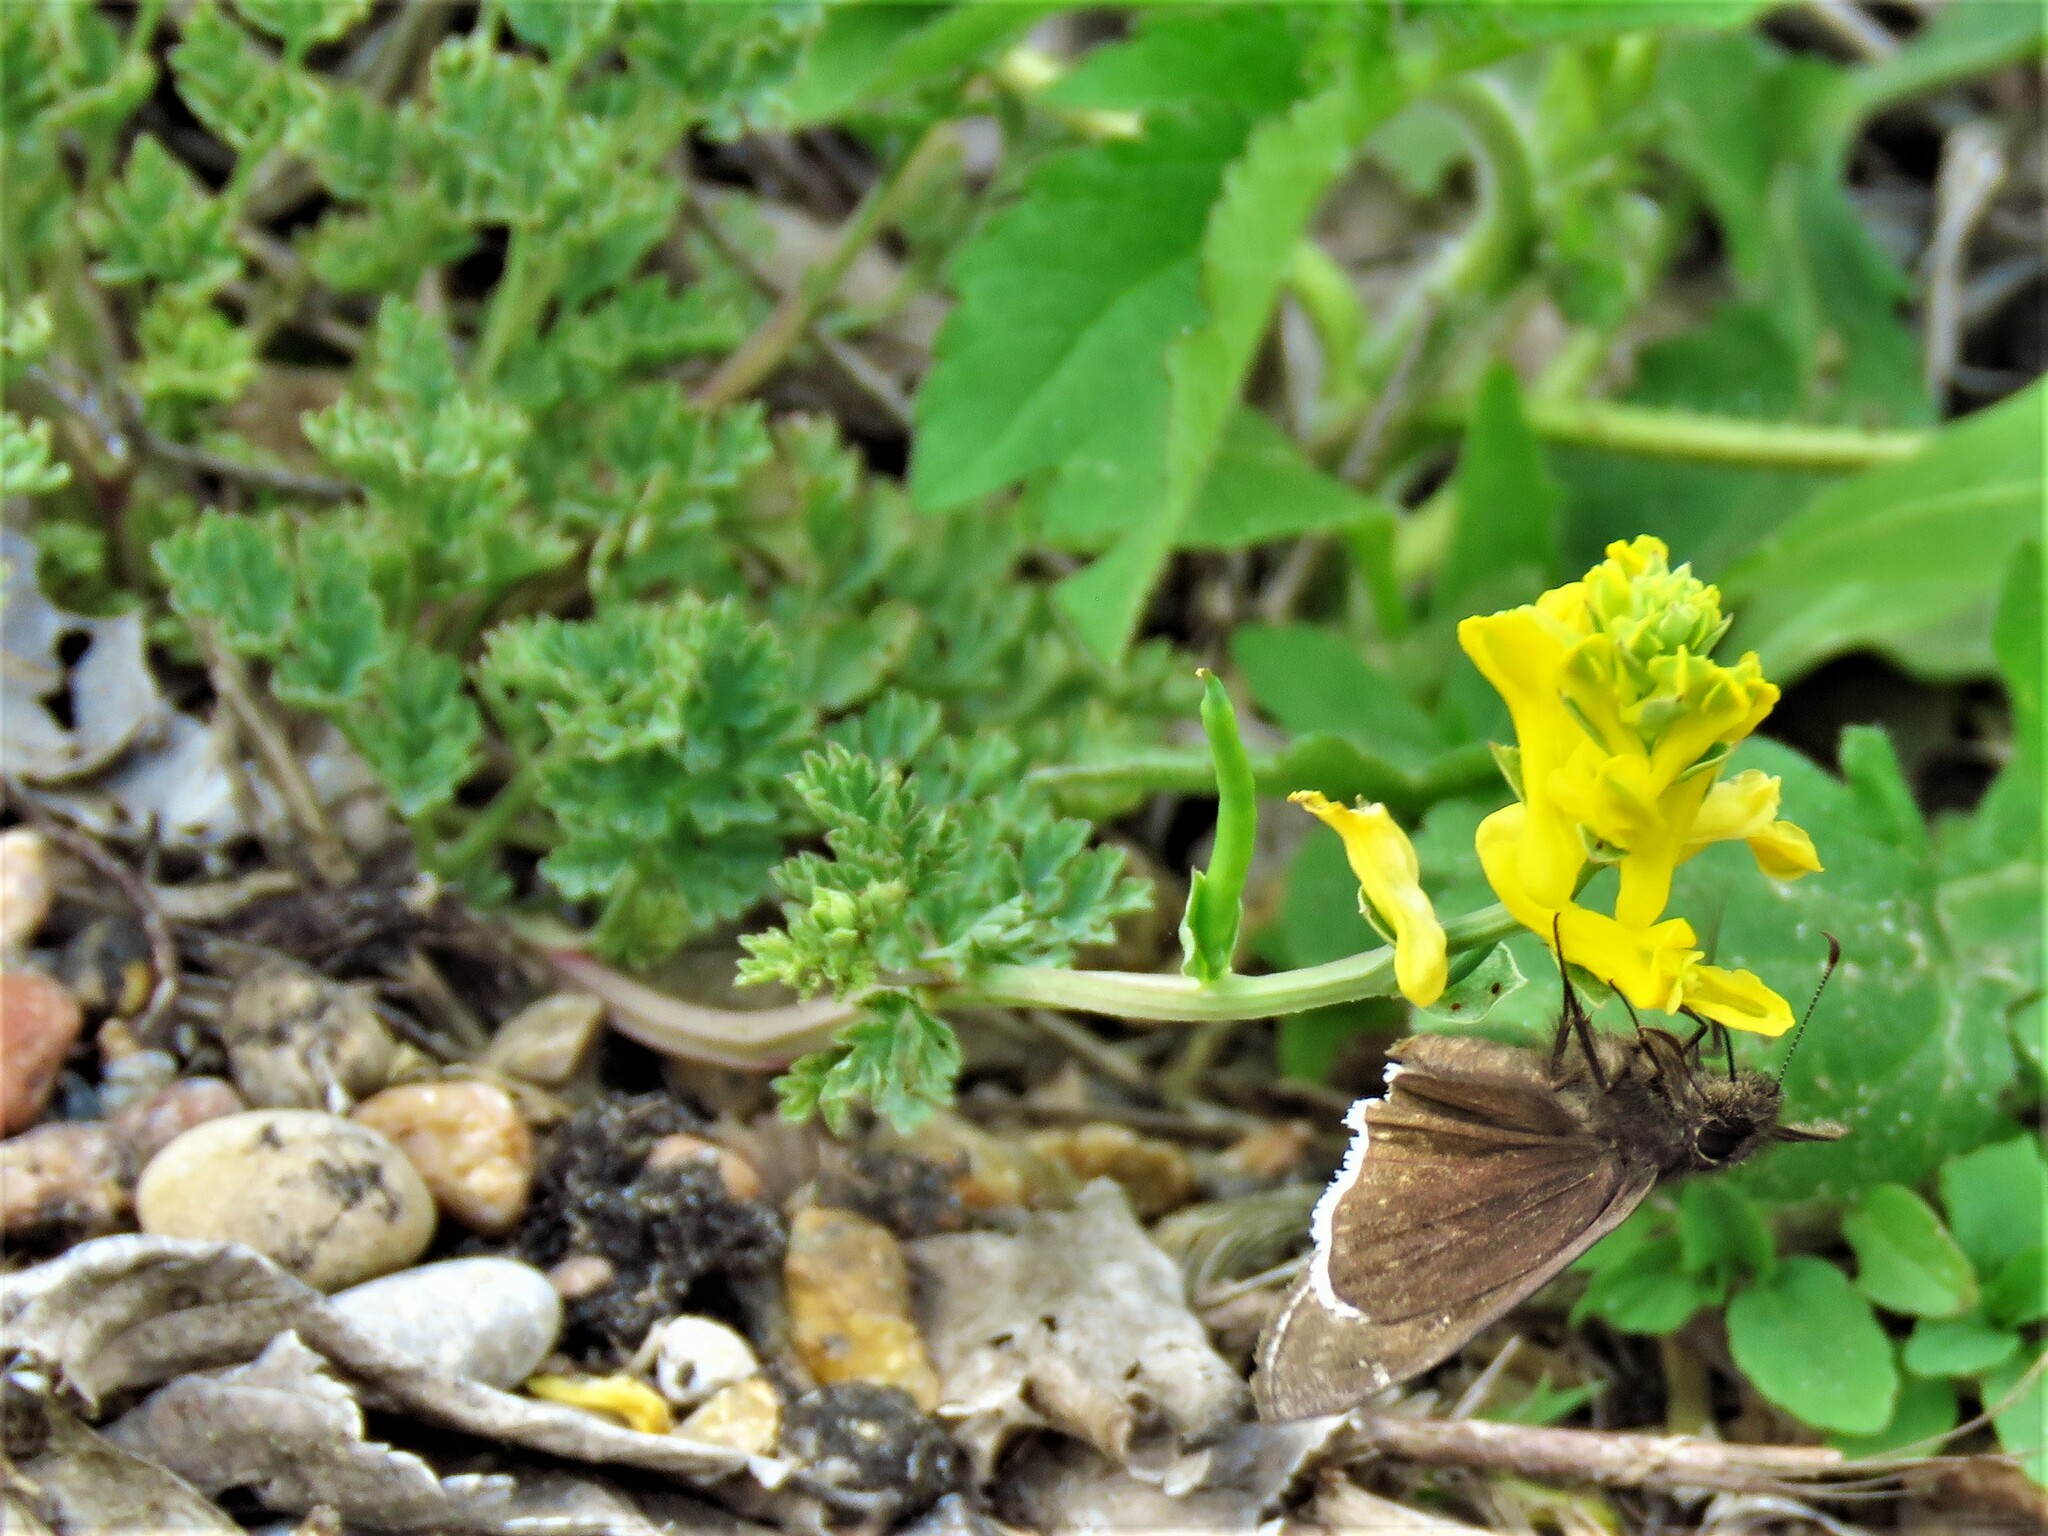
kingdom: Plantae
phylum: Tracheophyta
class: Magnoliopsida
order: Ranunculales
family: Papaveraceae
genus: Corydalis
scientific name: Corydalis aurea
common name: Golden corydalis
